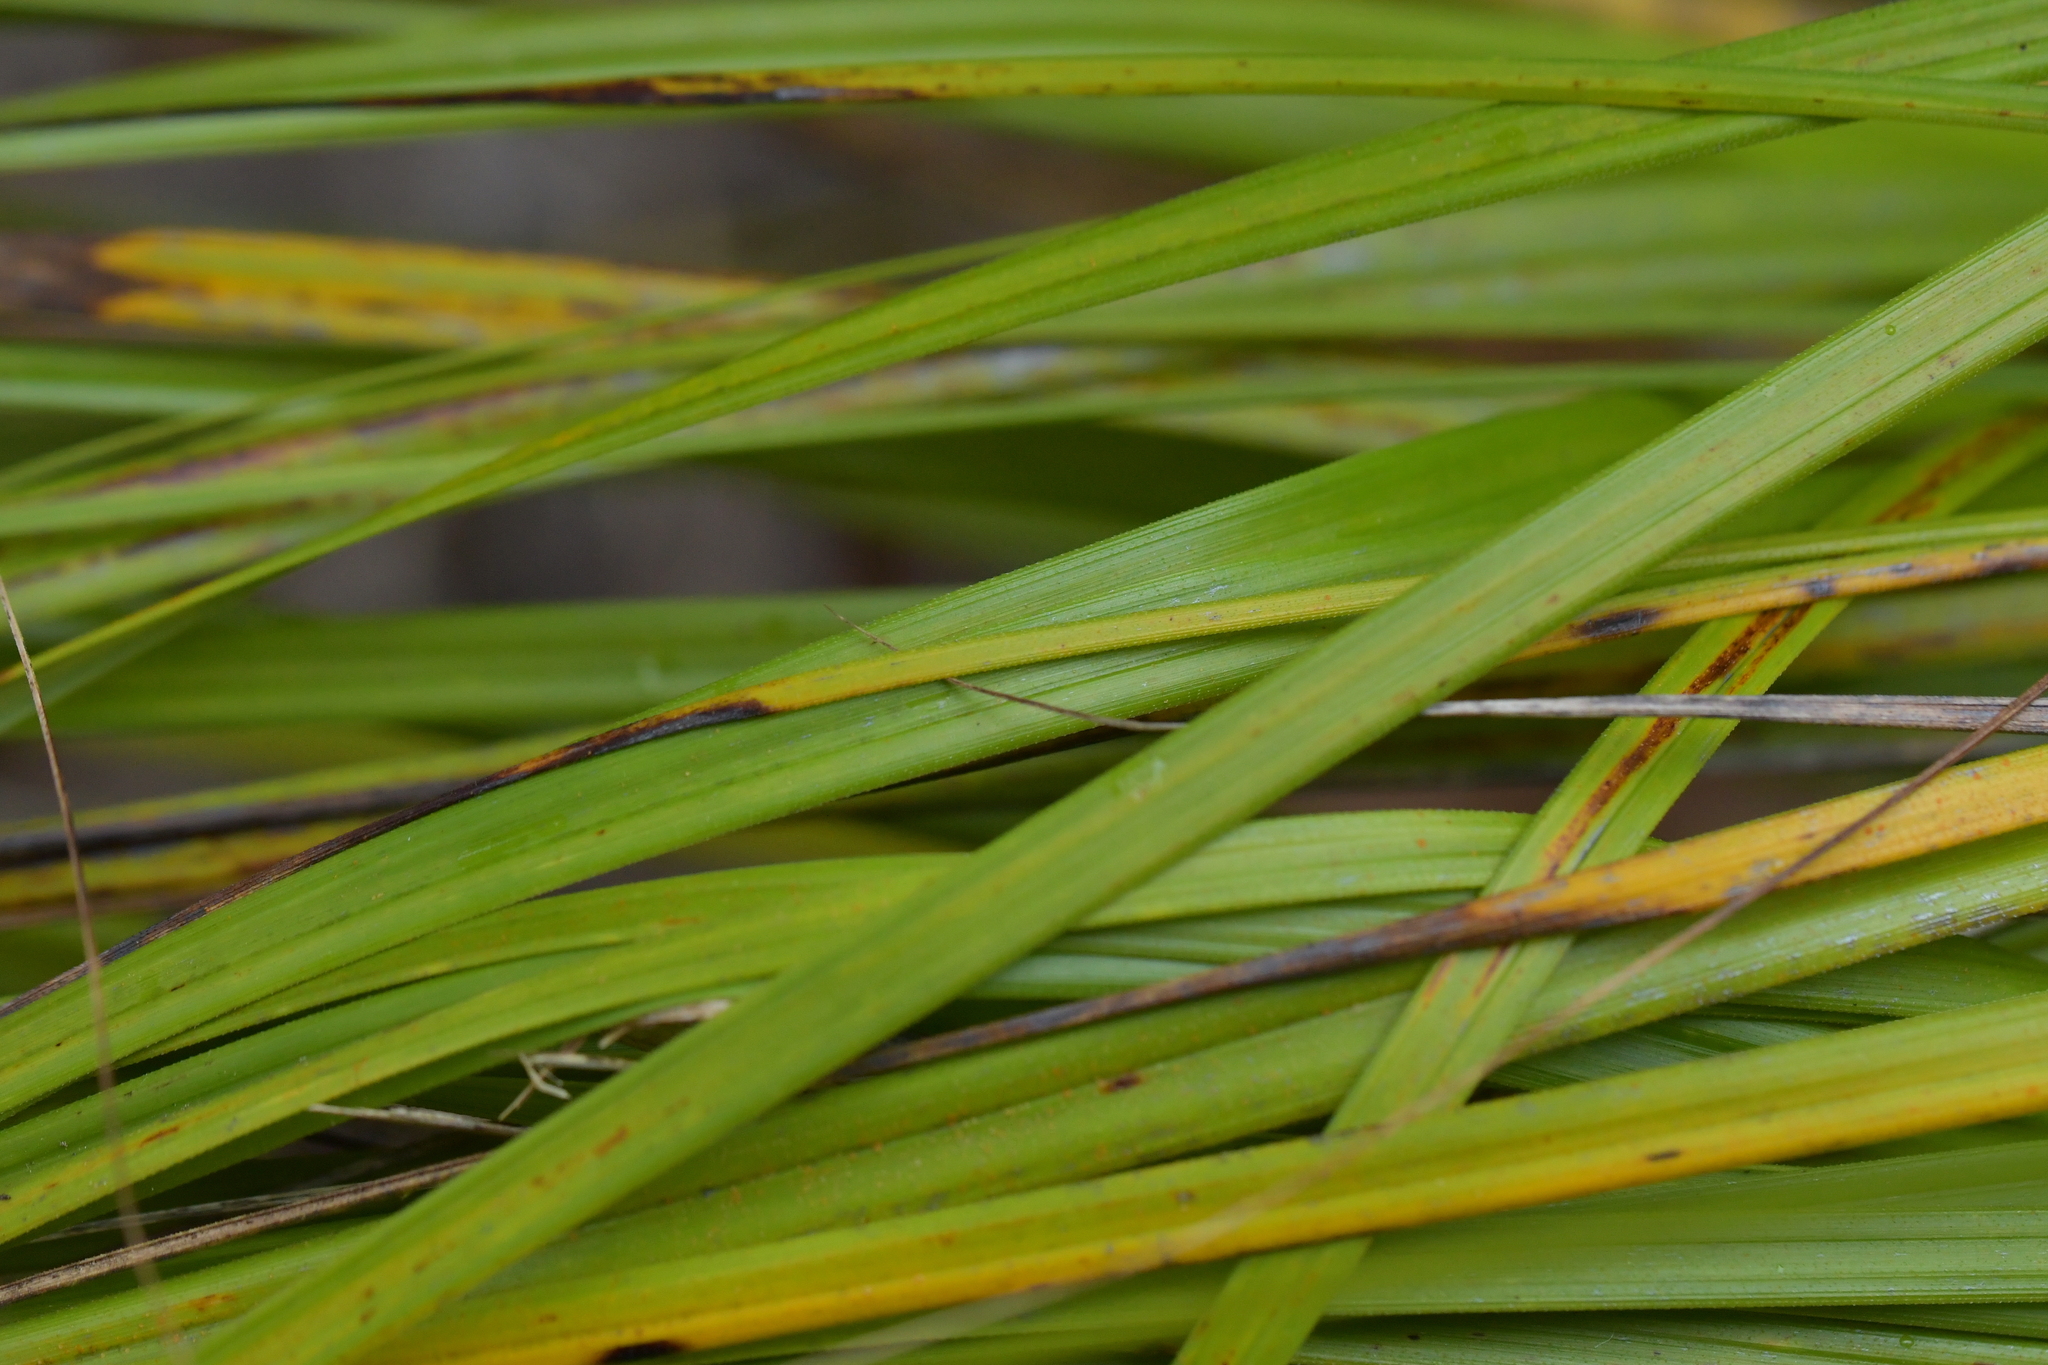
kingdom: Plantae
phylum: Tracheophyta
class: Liliopsida
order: Poales
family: Cyperaceae
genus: Gahnia
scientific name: Gahnia setifolia
